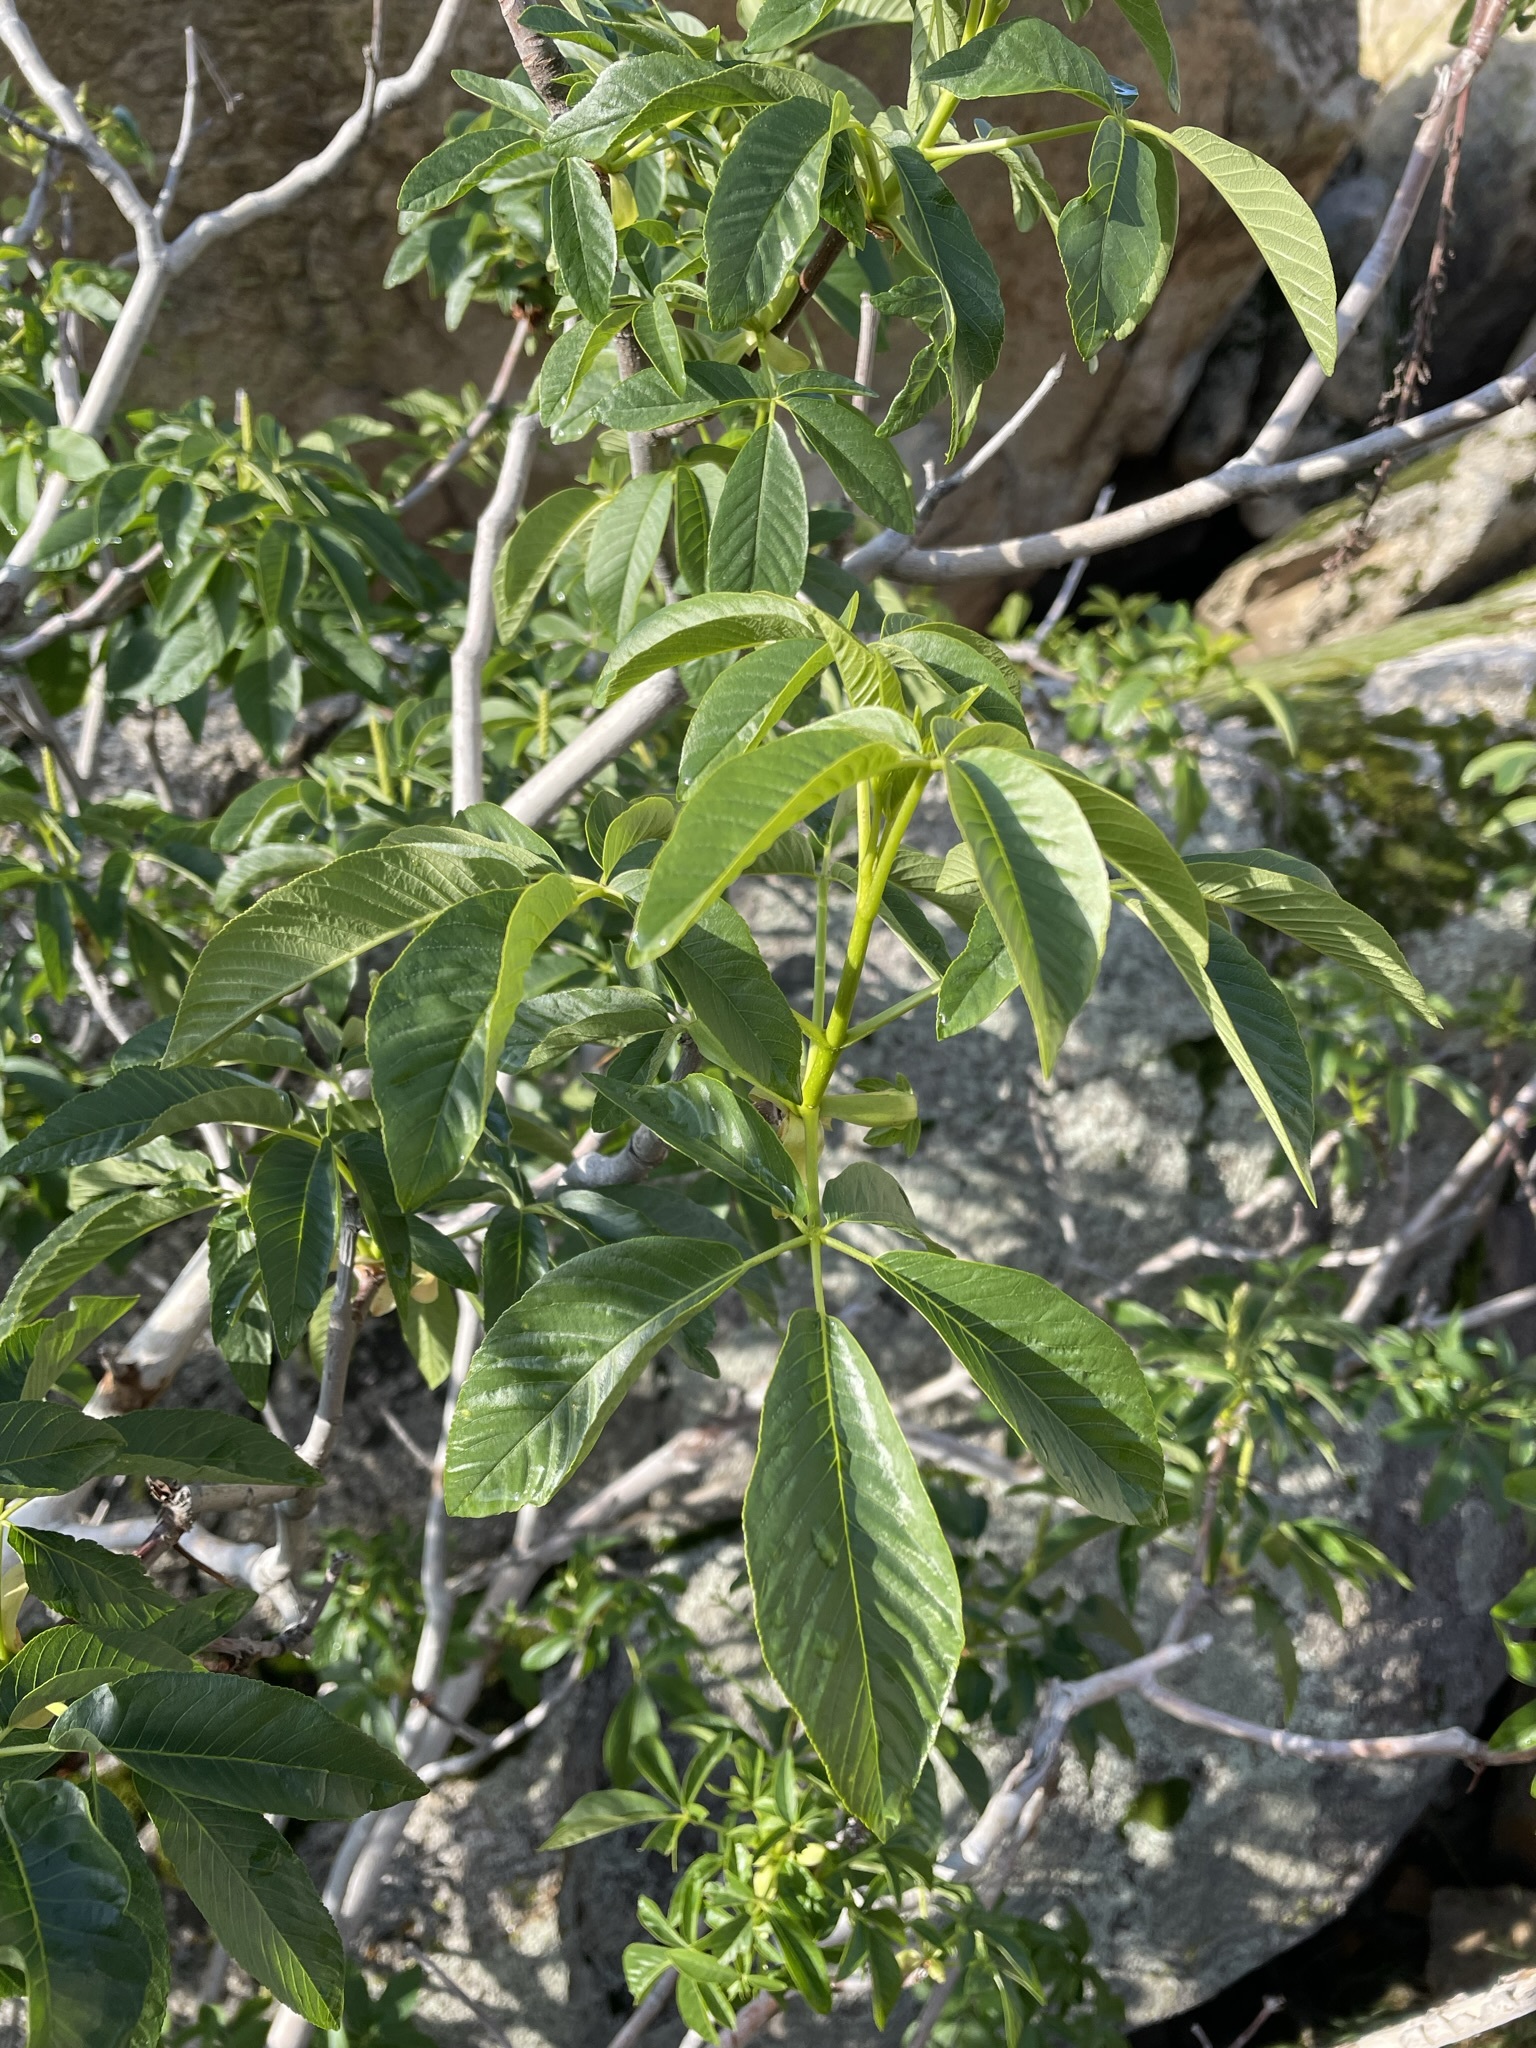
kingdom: Plantae
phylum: Tracheophyta
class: Magnoliopsida
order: Sapindales
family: Sapindaceae
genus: Aesculus
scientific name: Aesculus californica
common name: California buckeye
